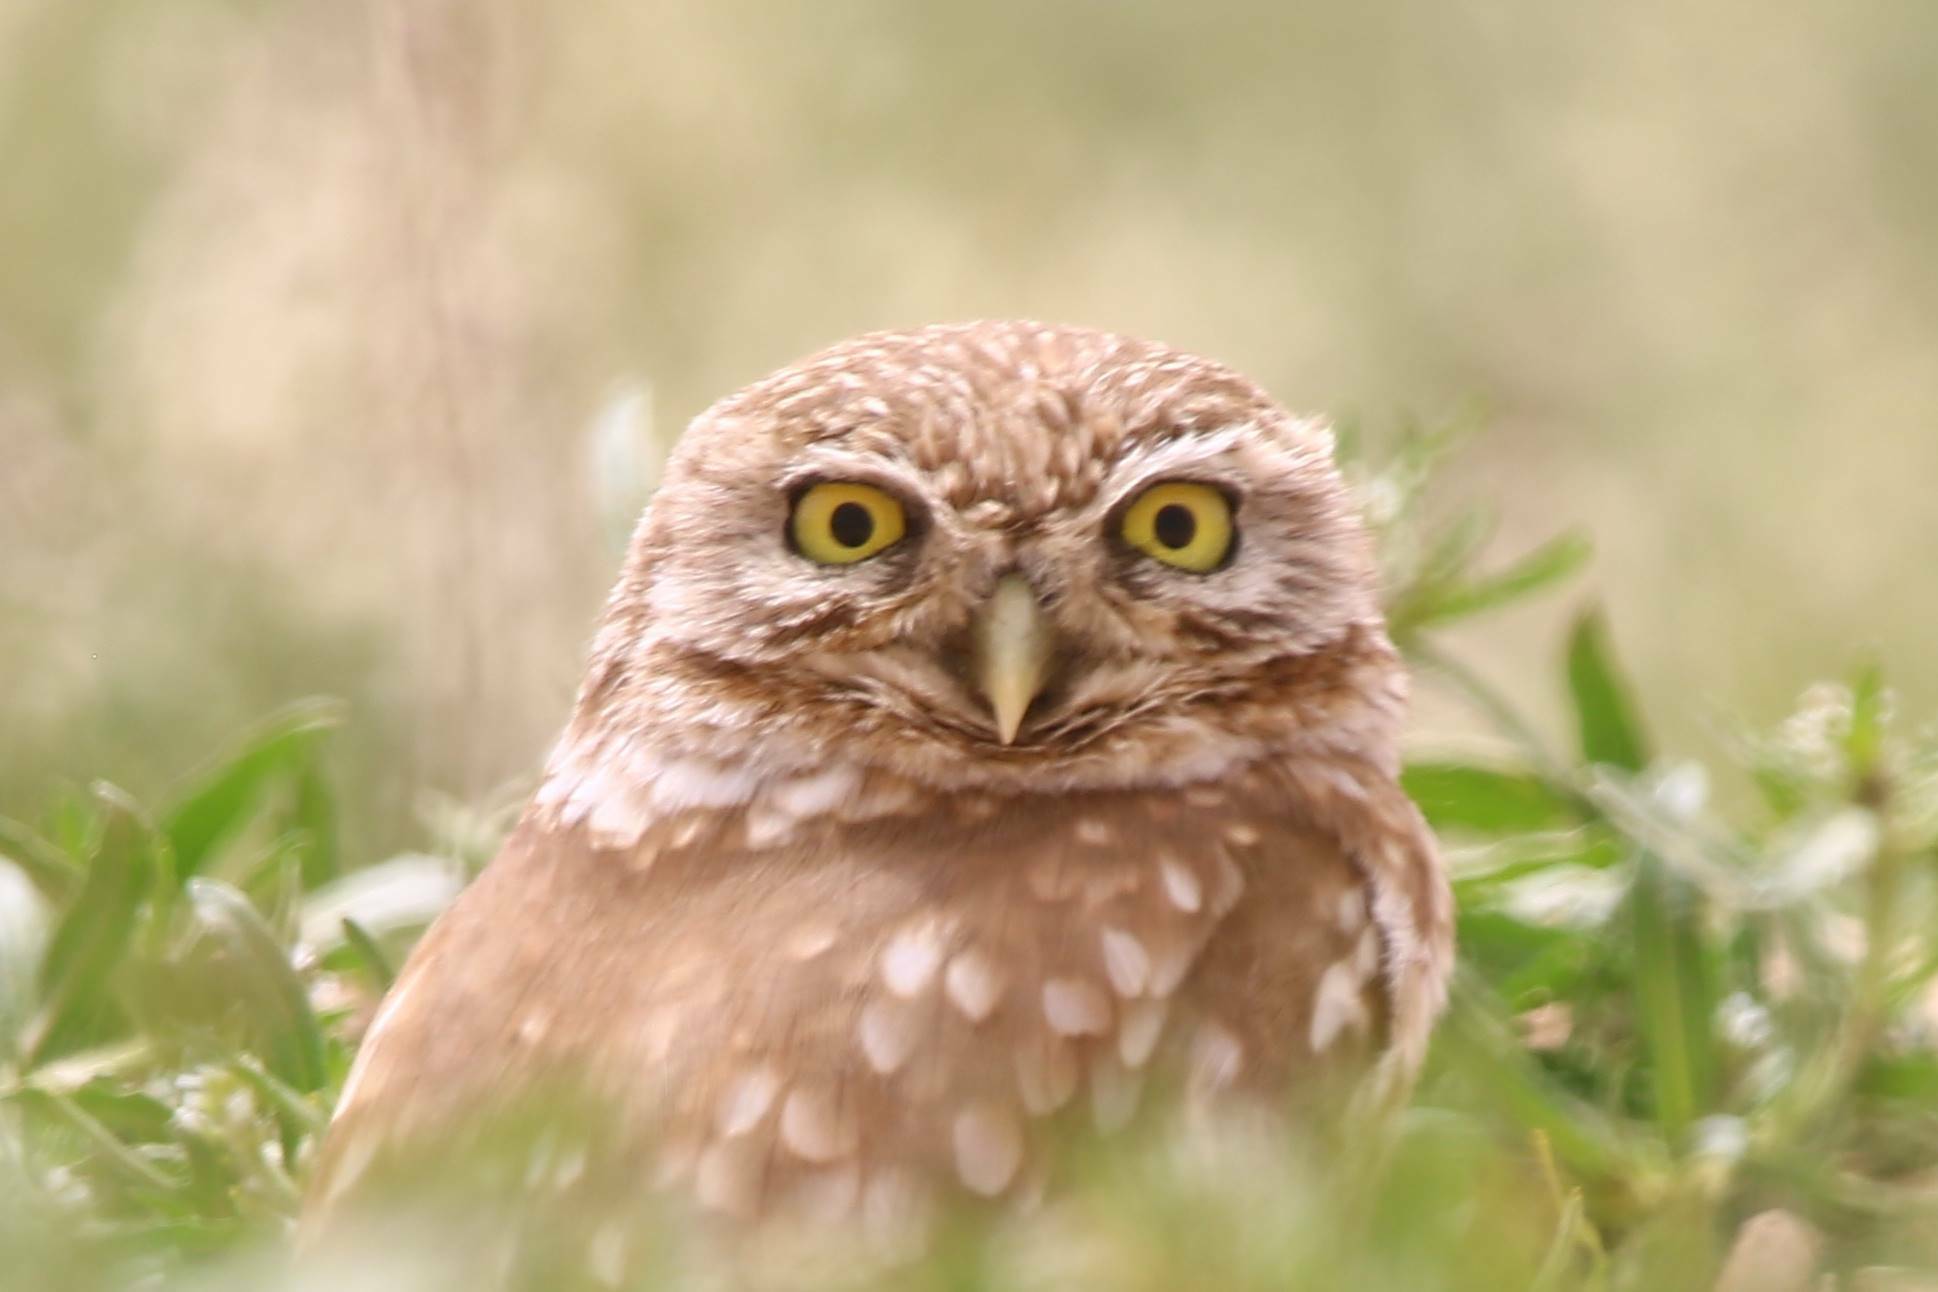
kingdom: Animalia
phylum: Chordata
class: Aves
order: Strigiformes
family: Strigidae
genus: Athene
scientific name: Athene noctua
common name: Little owl
